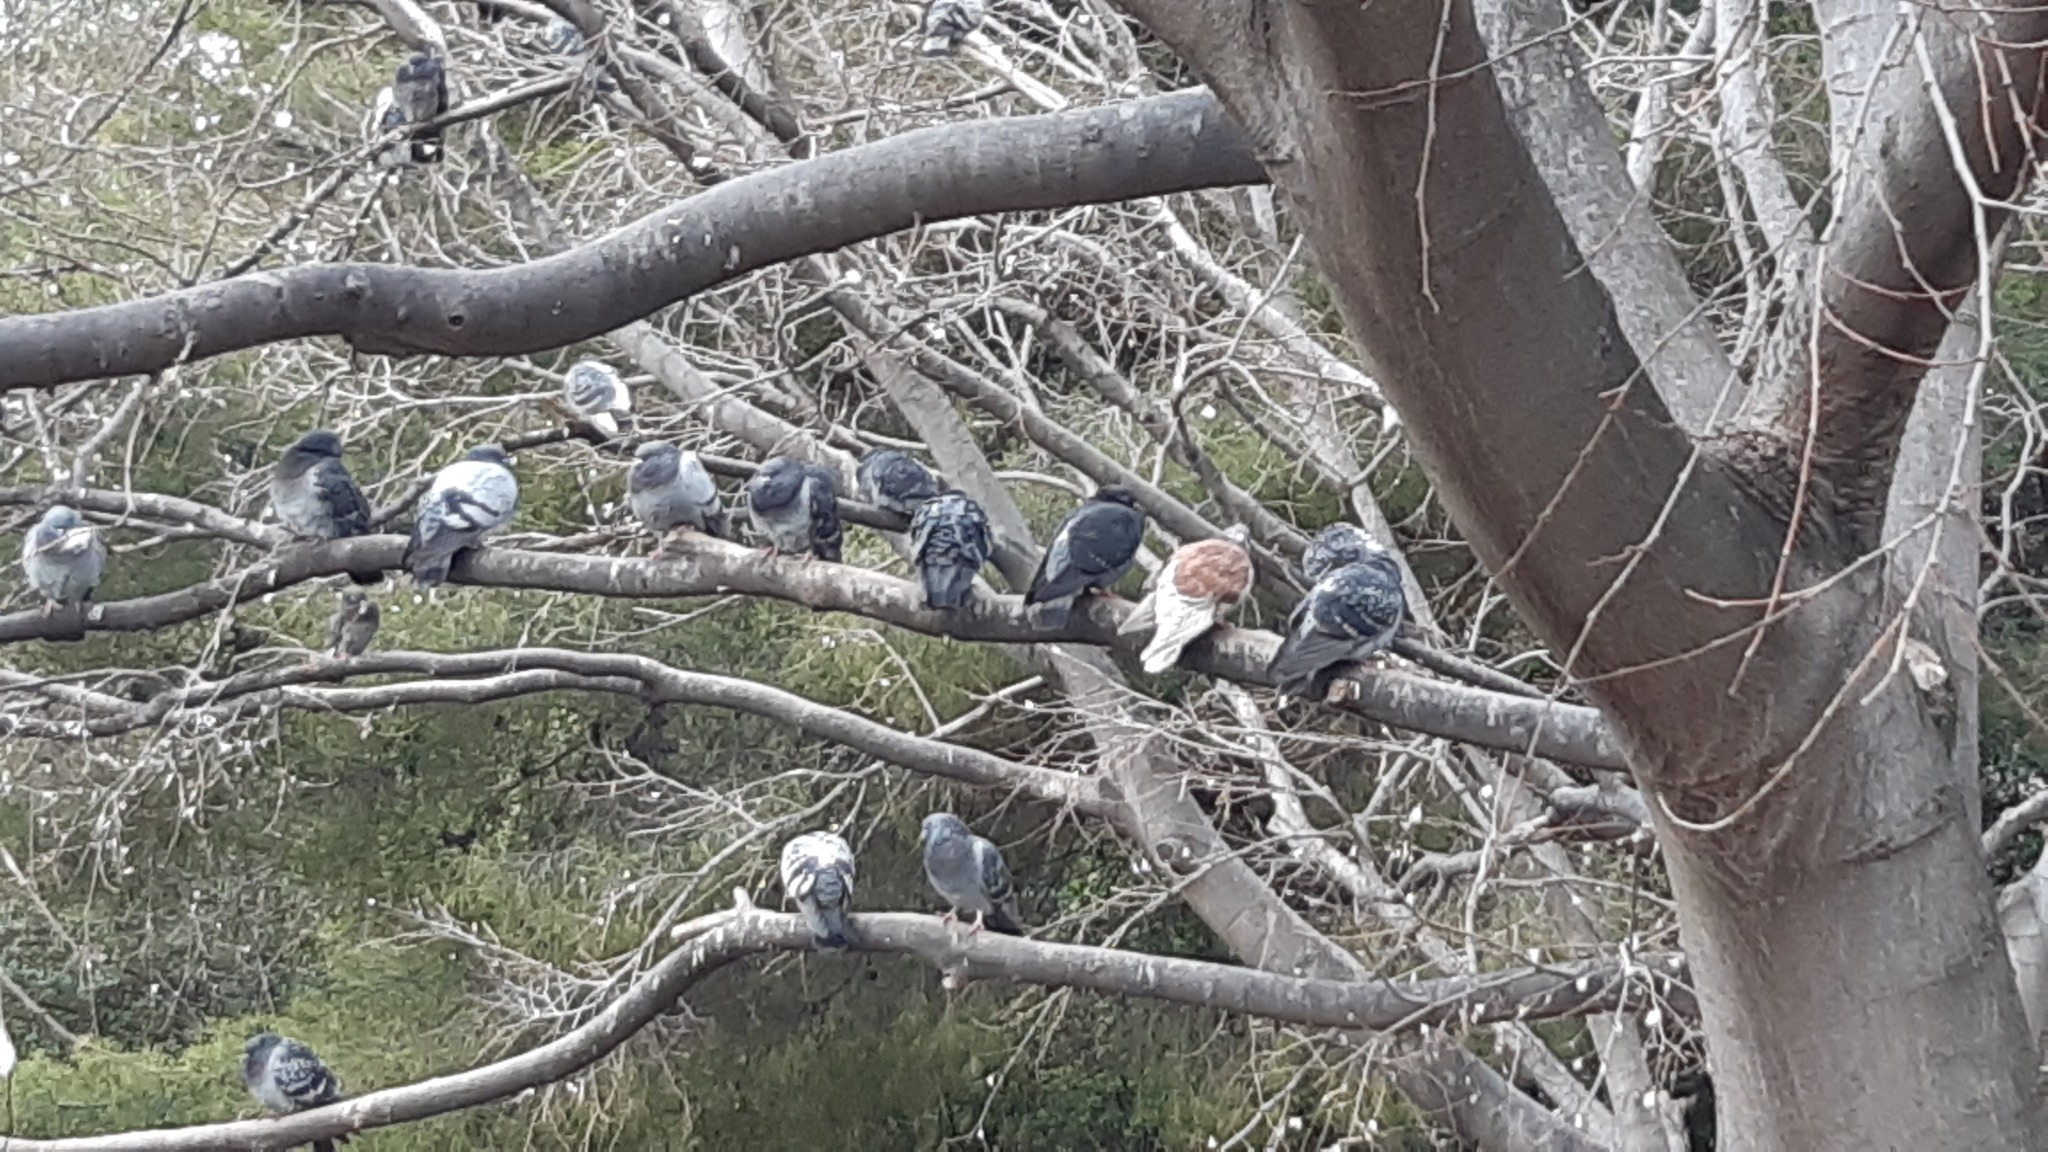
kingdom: Animalia
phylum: Chordata
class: Aves
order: Columbiformes
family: Columbidae
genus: Columba
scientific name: Columba livia
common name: Rock pigeon
